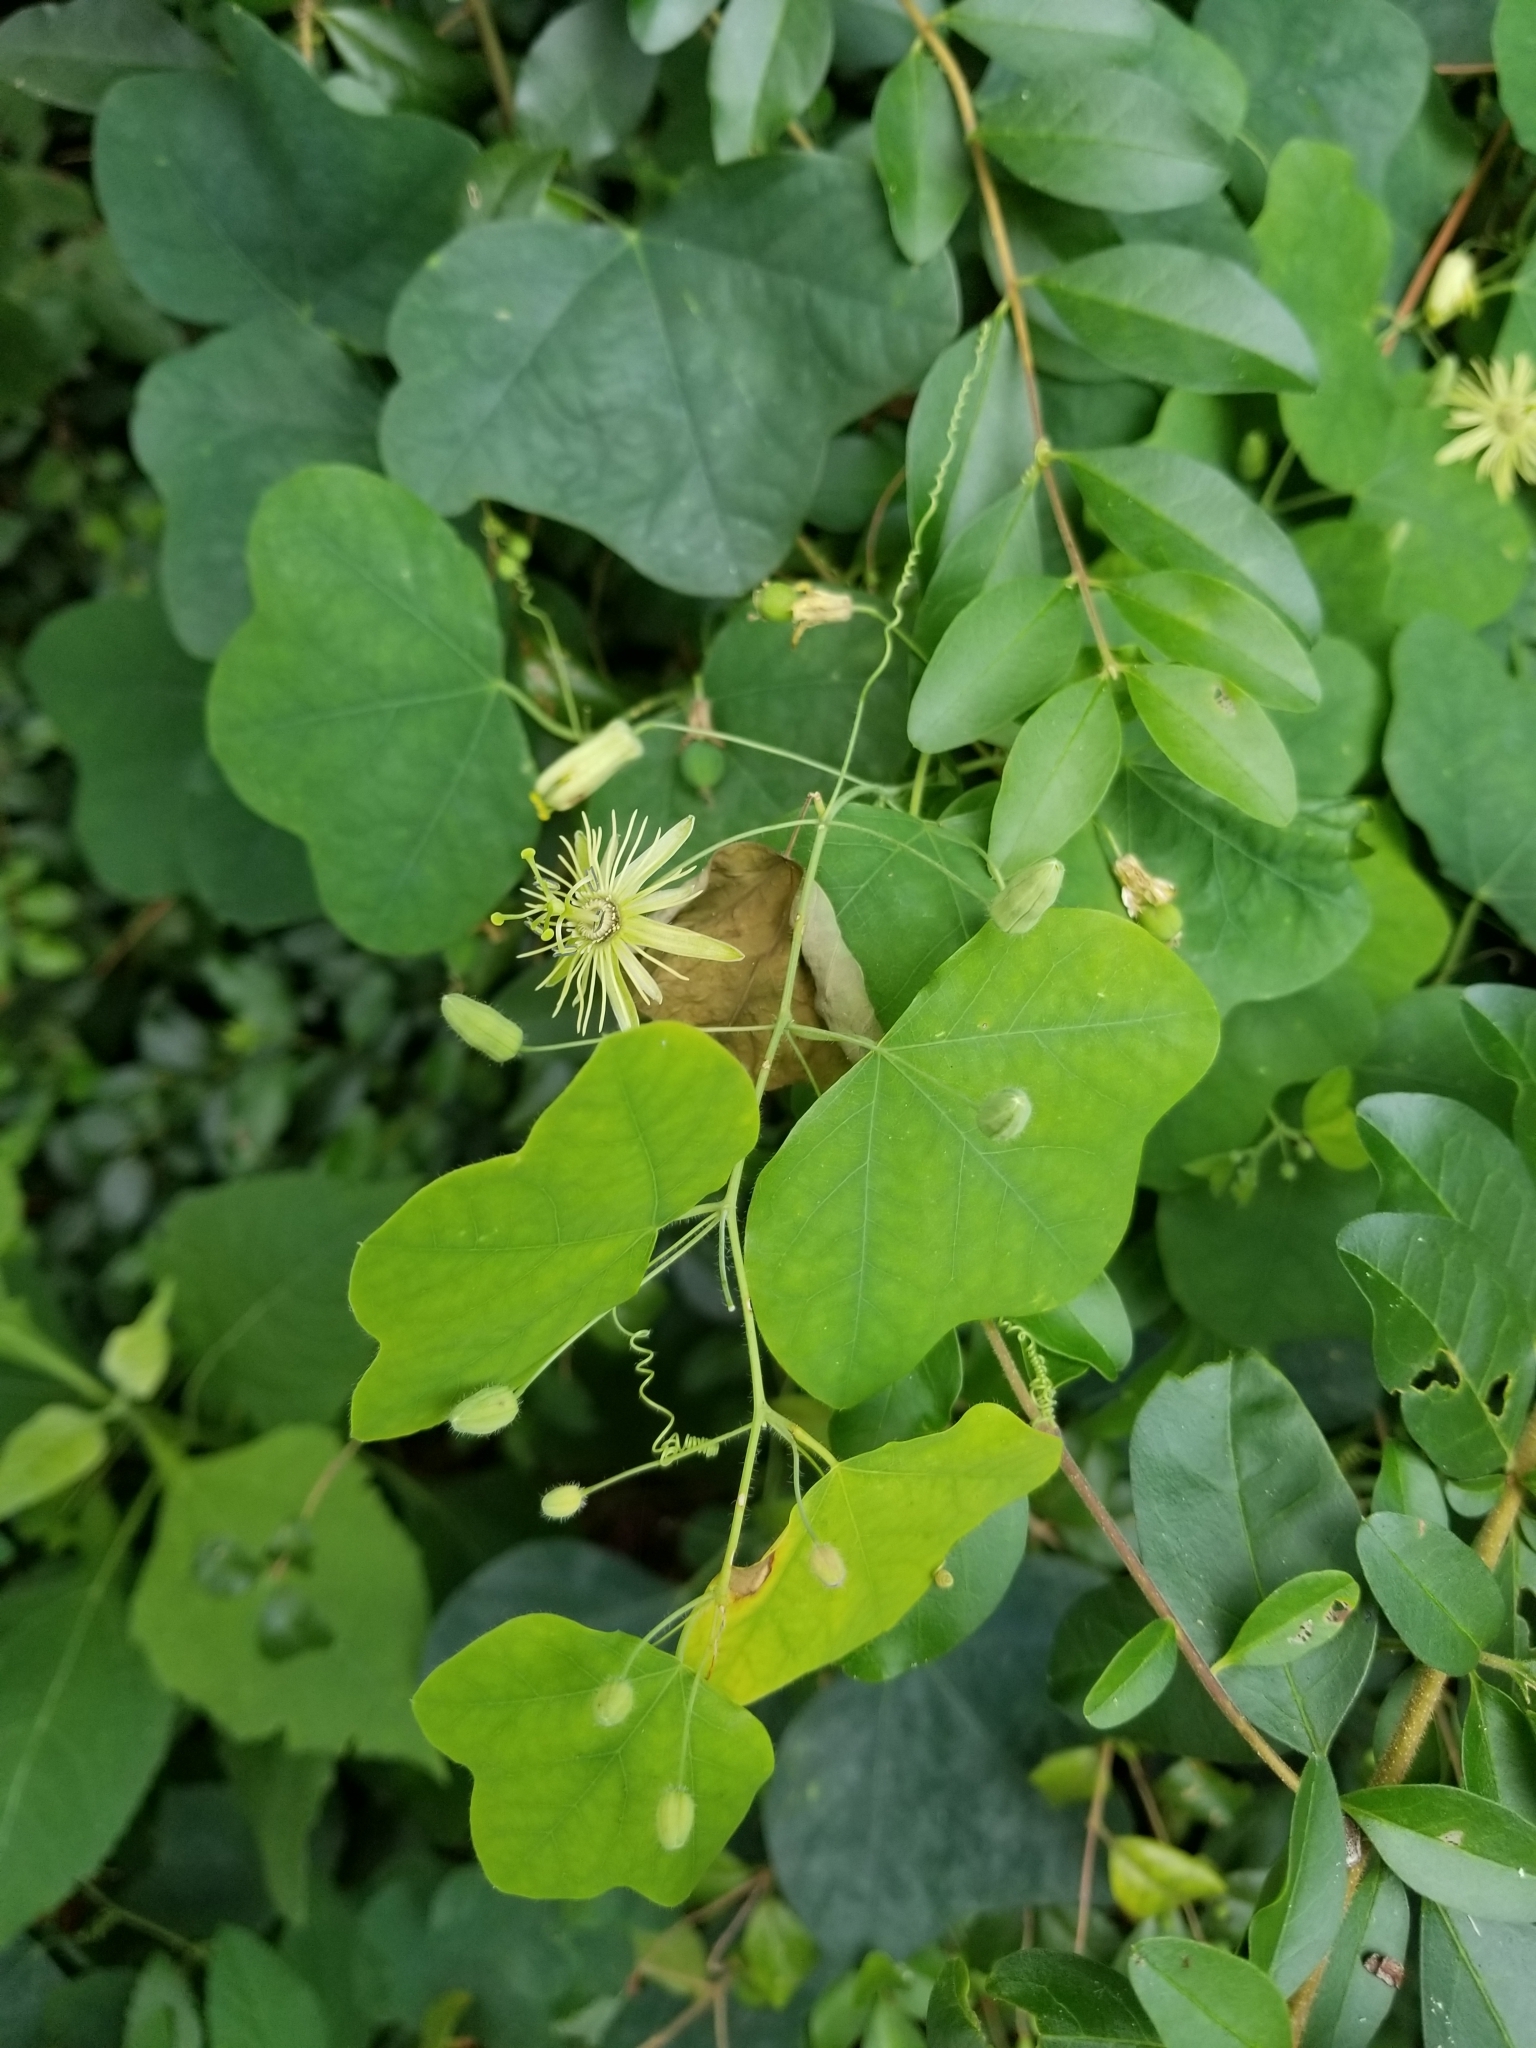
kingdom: Plantae
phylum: Tracheophyta
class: Magnoliopsida
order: Malpighiales
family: Passifloraceae
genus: Passiflora
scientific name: Passiflora lutea
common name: Yellow passionflower
